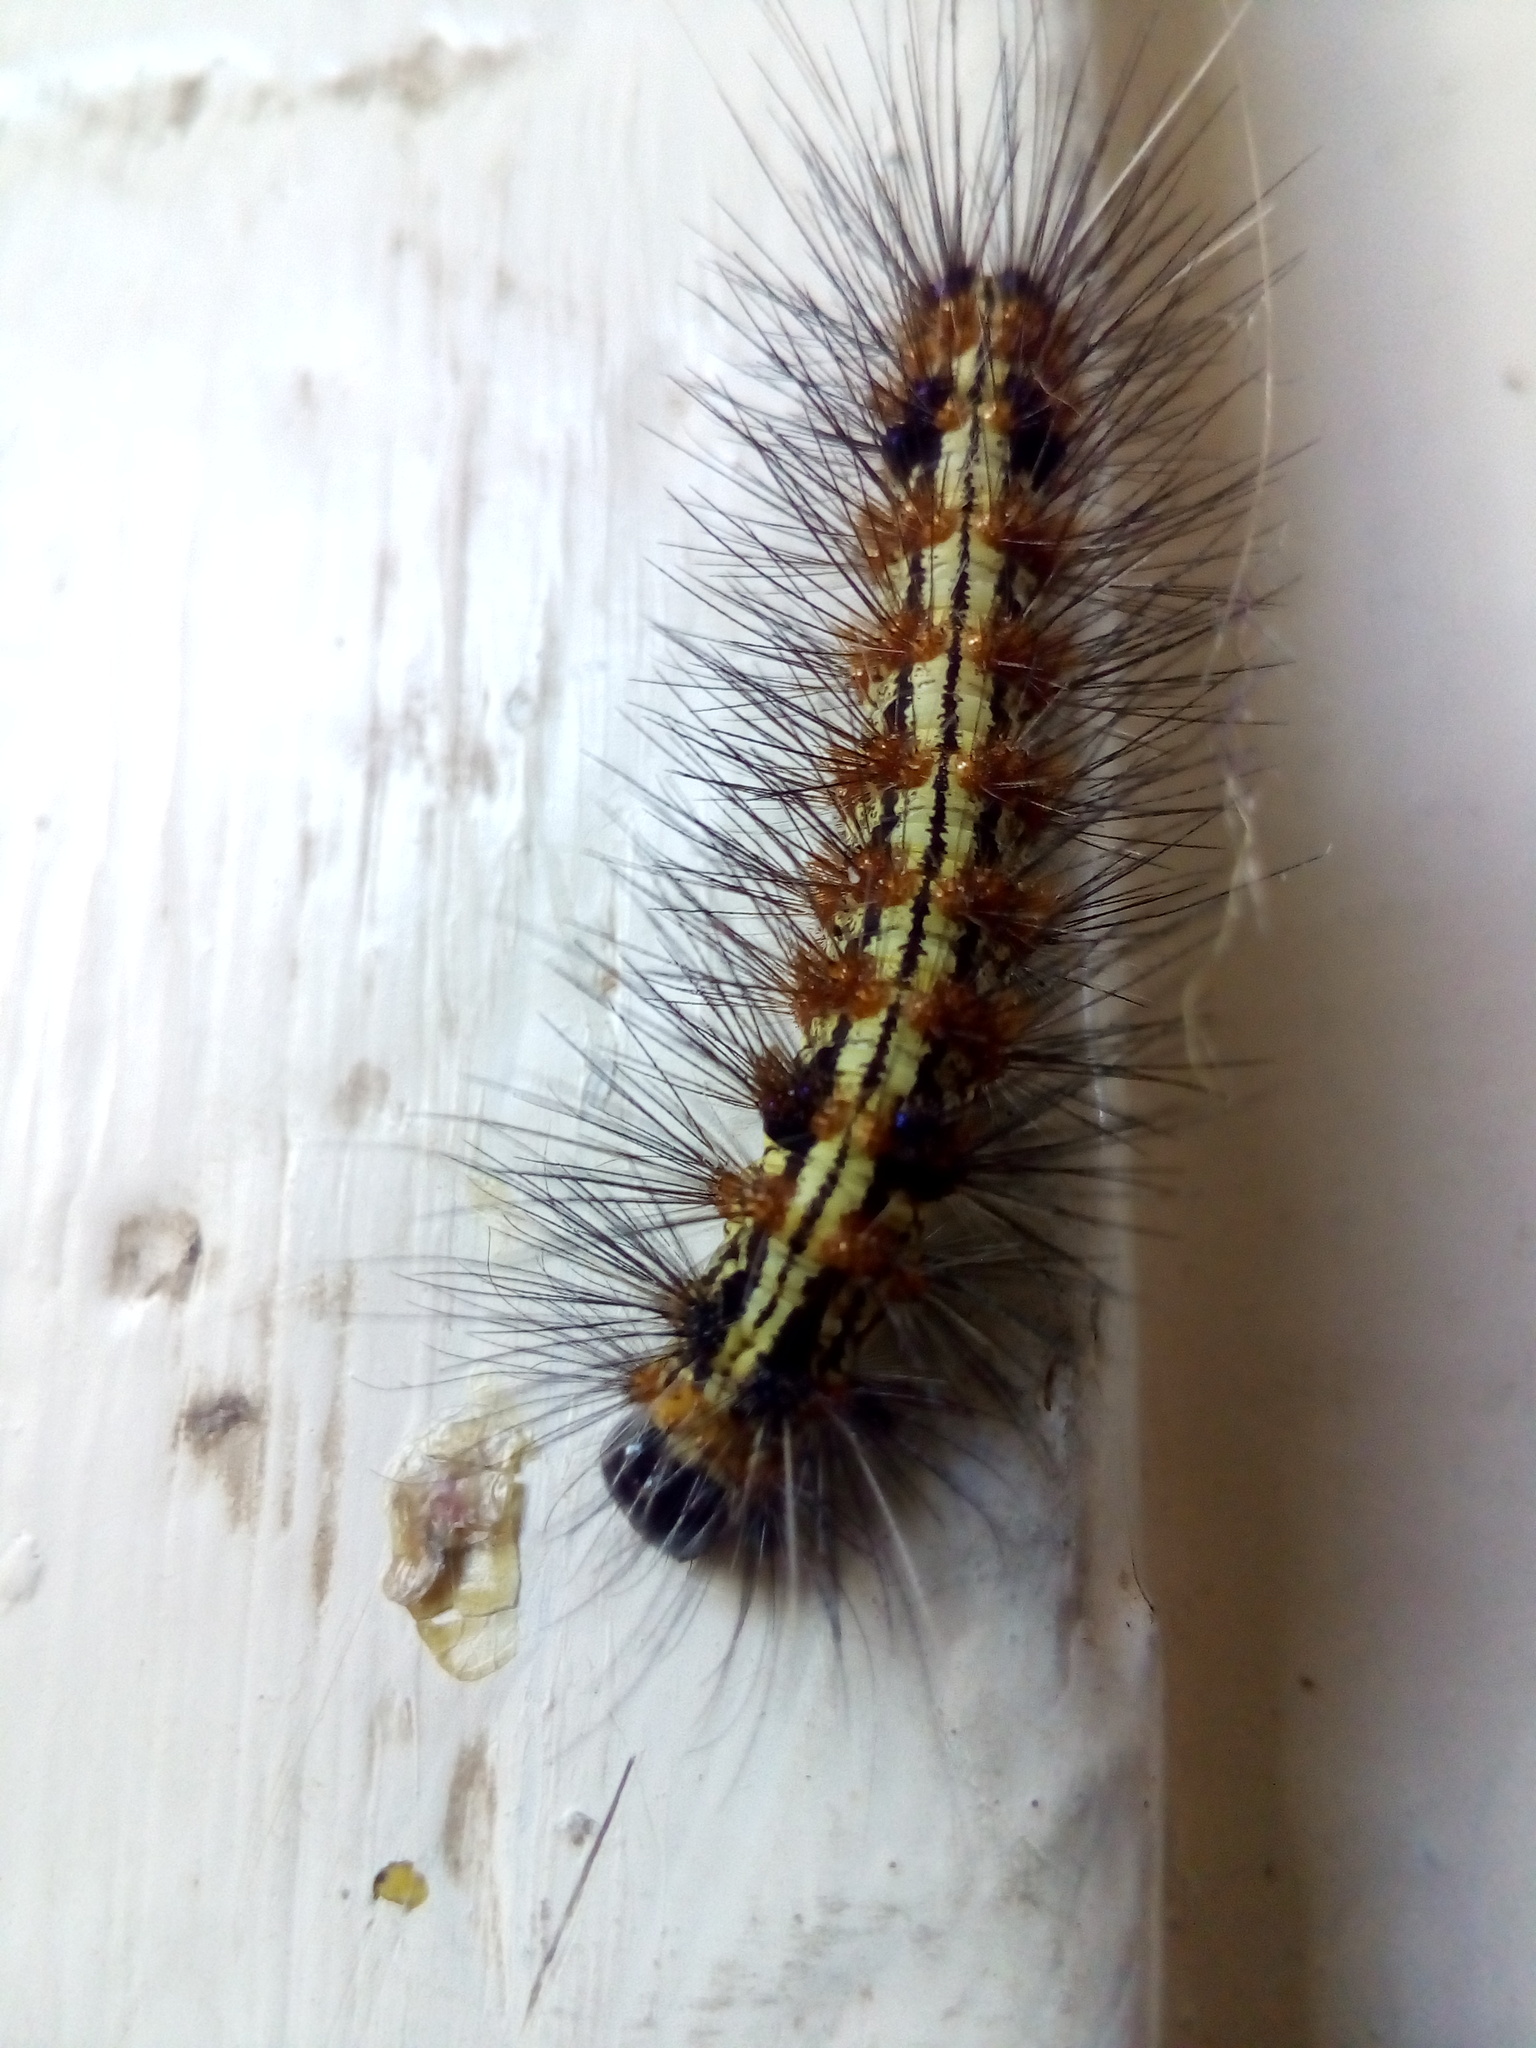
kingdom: Animalia
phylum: Arthropoda
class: Insecta
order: Lepidoptera
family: Erebidae
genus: Dysschema
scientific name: Dysschema sacrifica
